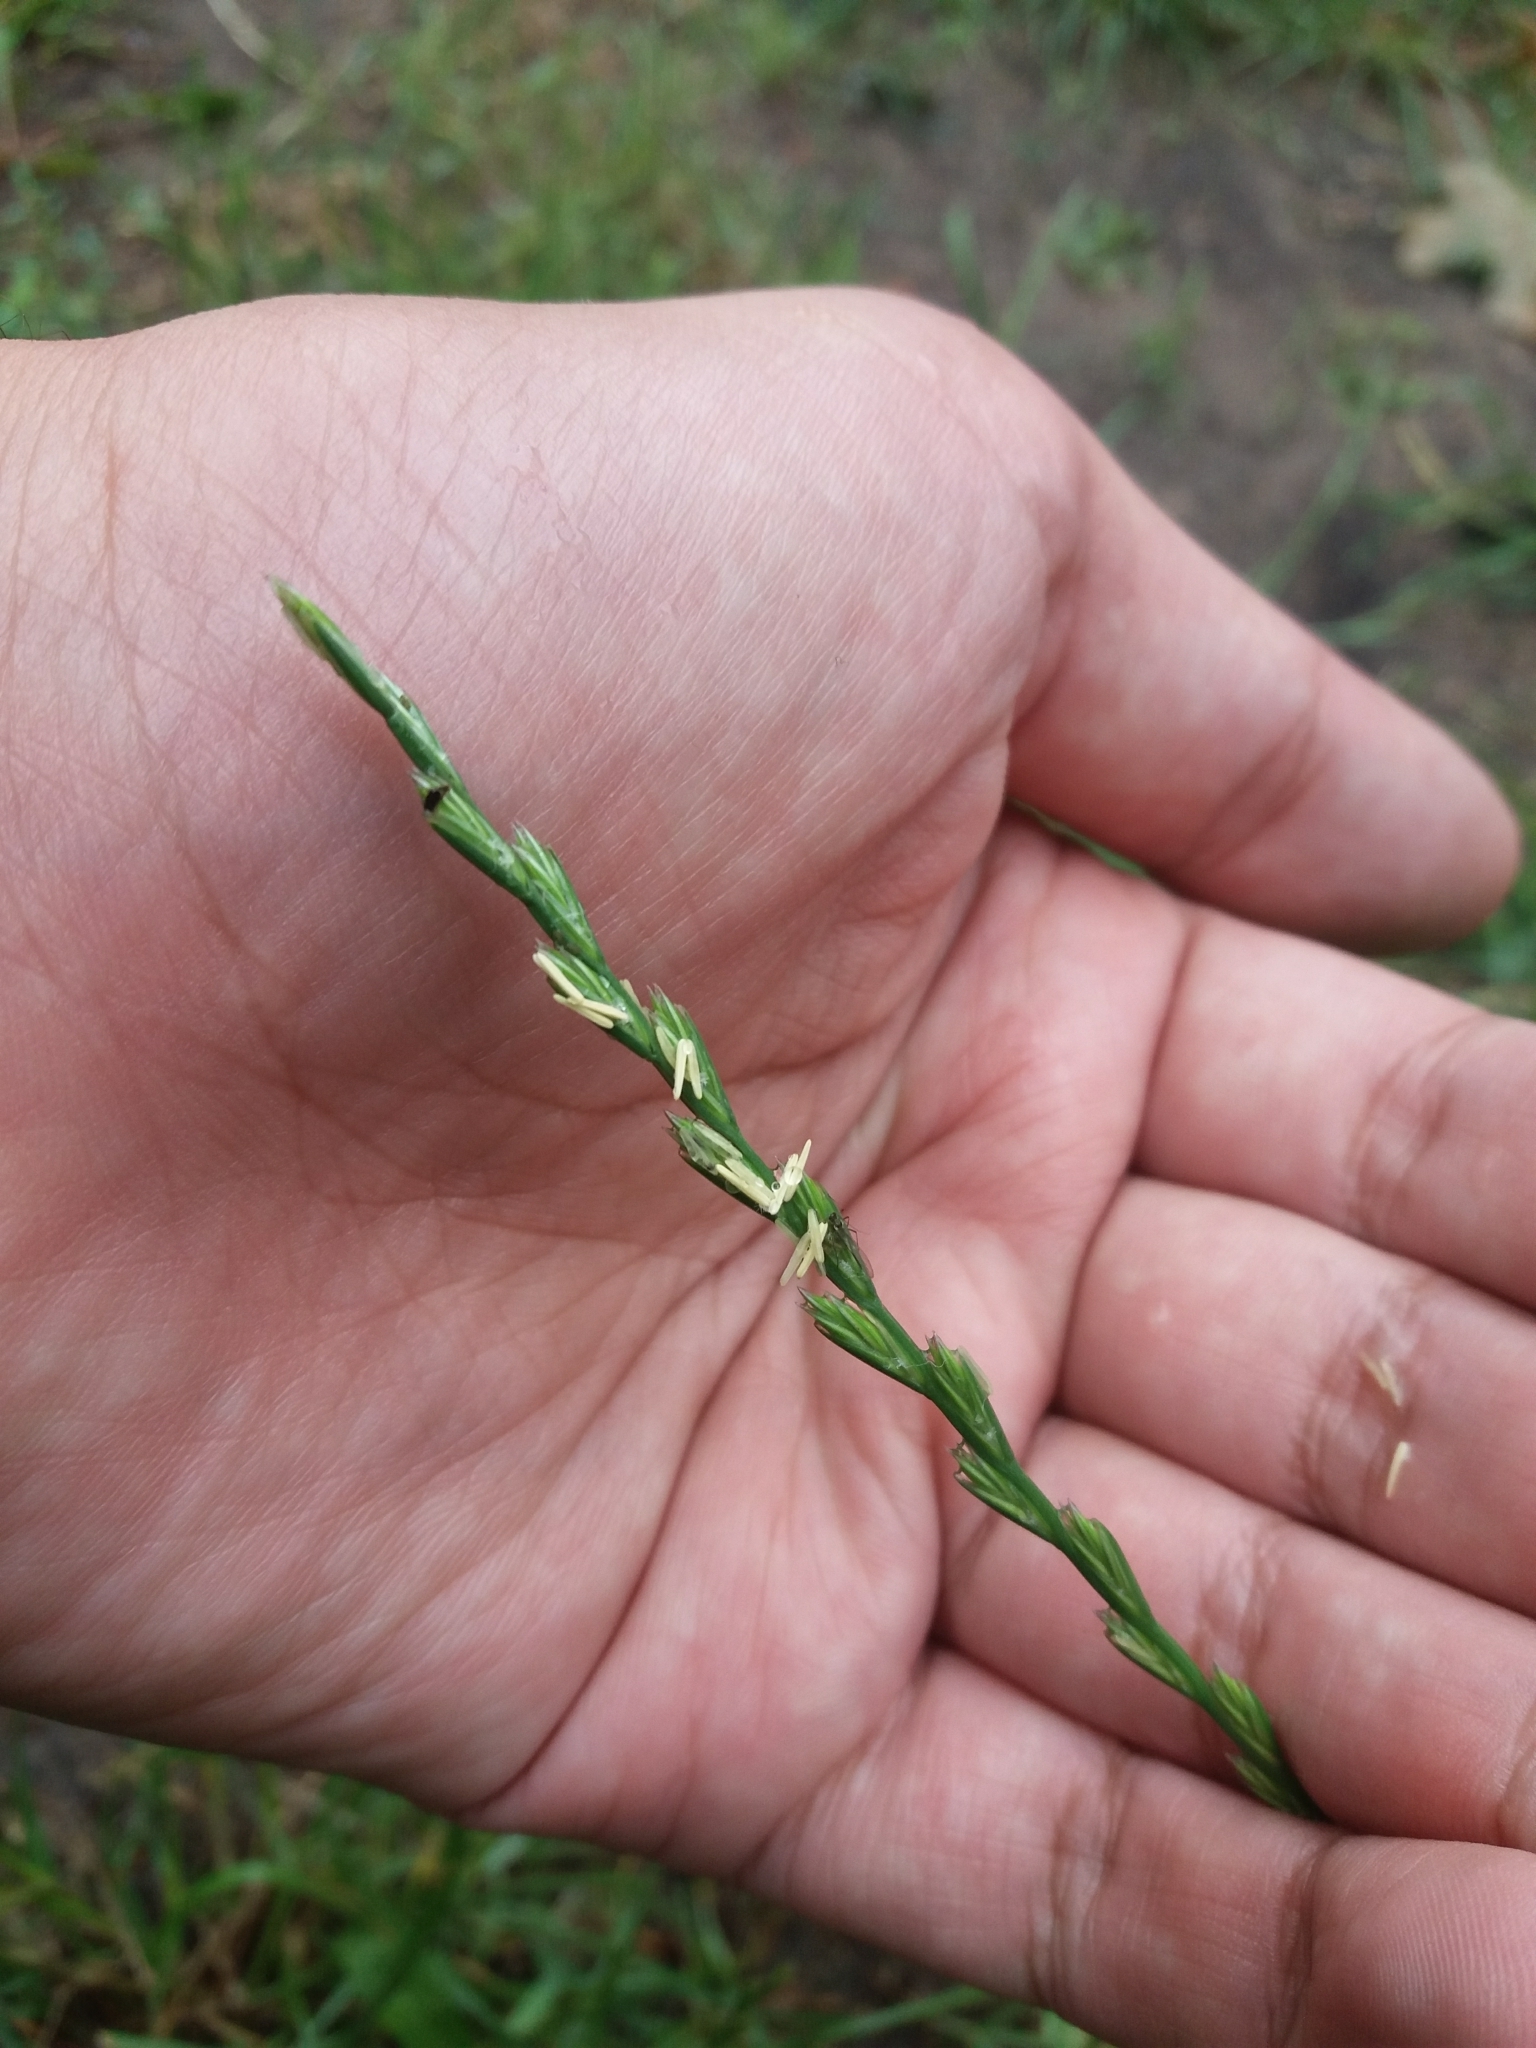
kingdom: Plantae
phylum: Tracheophyta
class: Liliopsida
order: Poales
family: Poaceae
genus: Lolium
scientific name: Lolium perenne
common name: Perennial ryegrass
